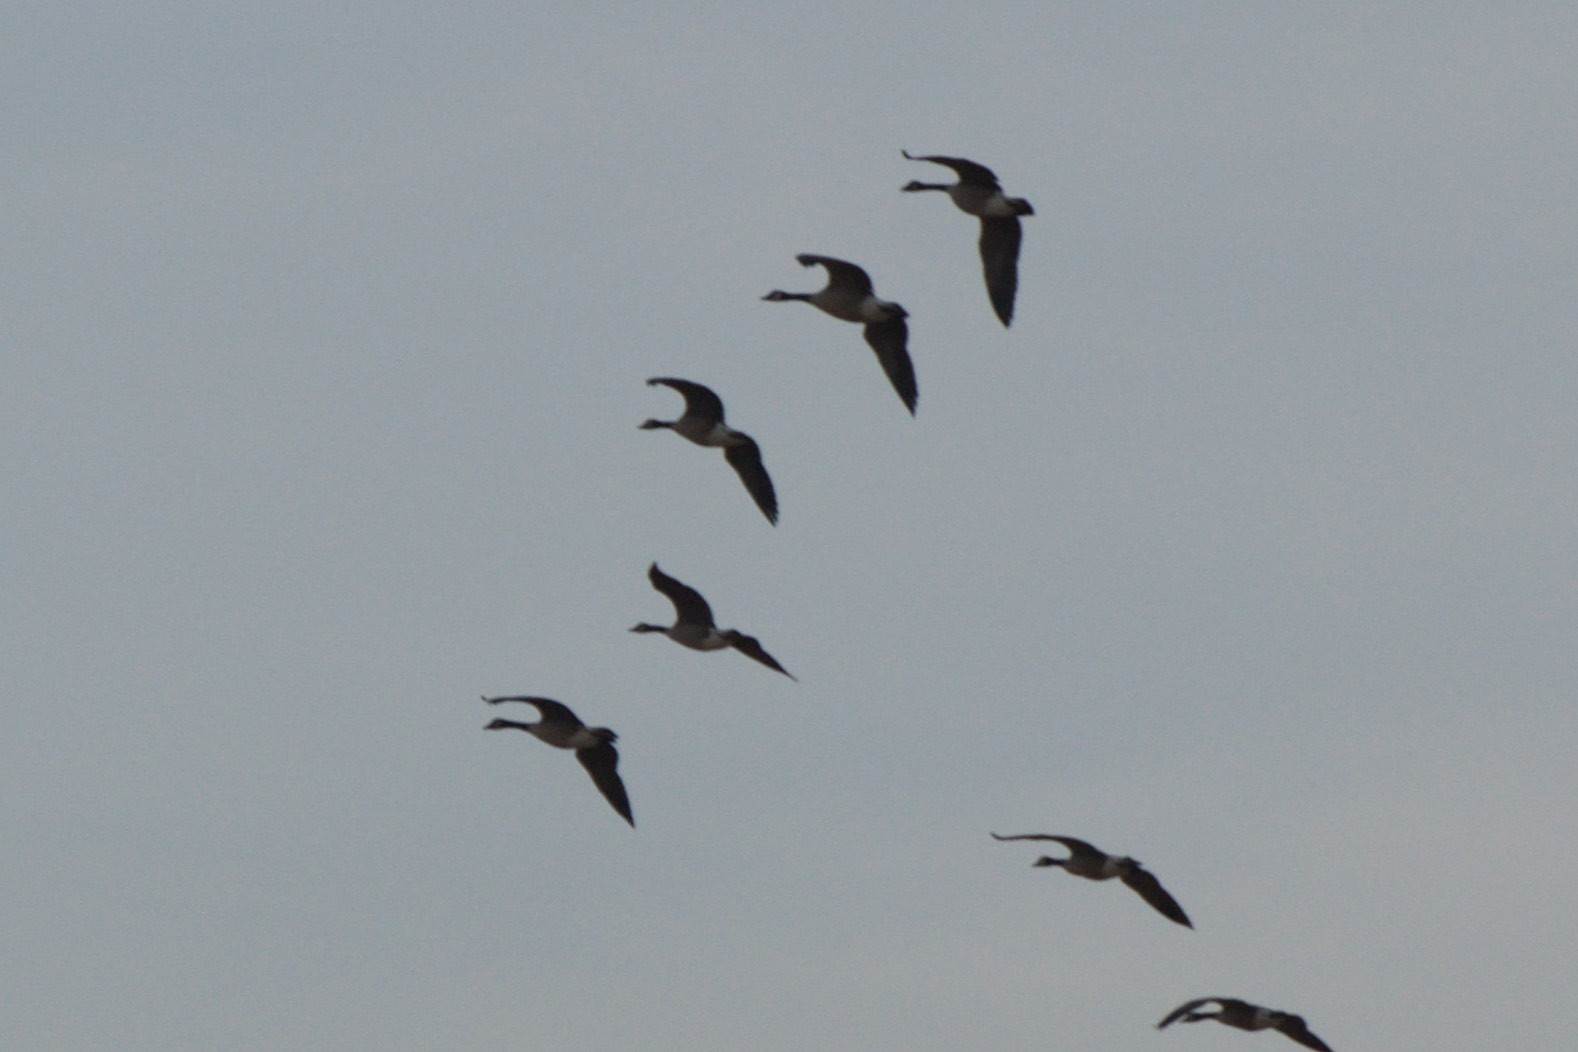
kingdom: Animalia
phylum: Chordata
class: Aves
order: Anseriformes
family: Anatidae
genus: Branta
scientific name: Branta canadensis
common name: Canada goose
